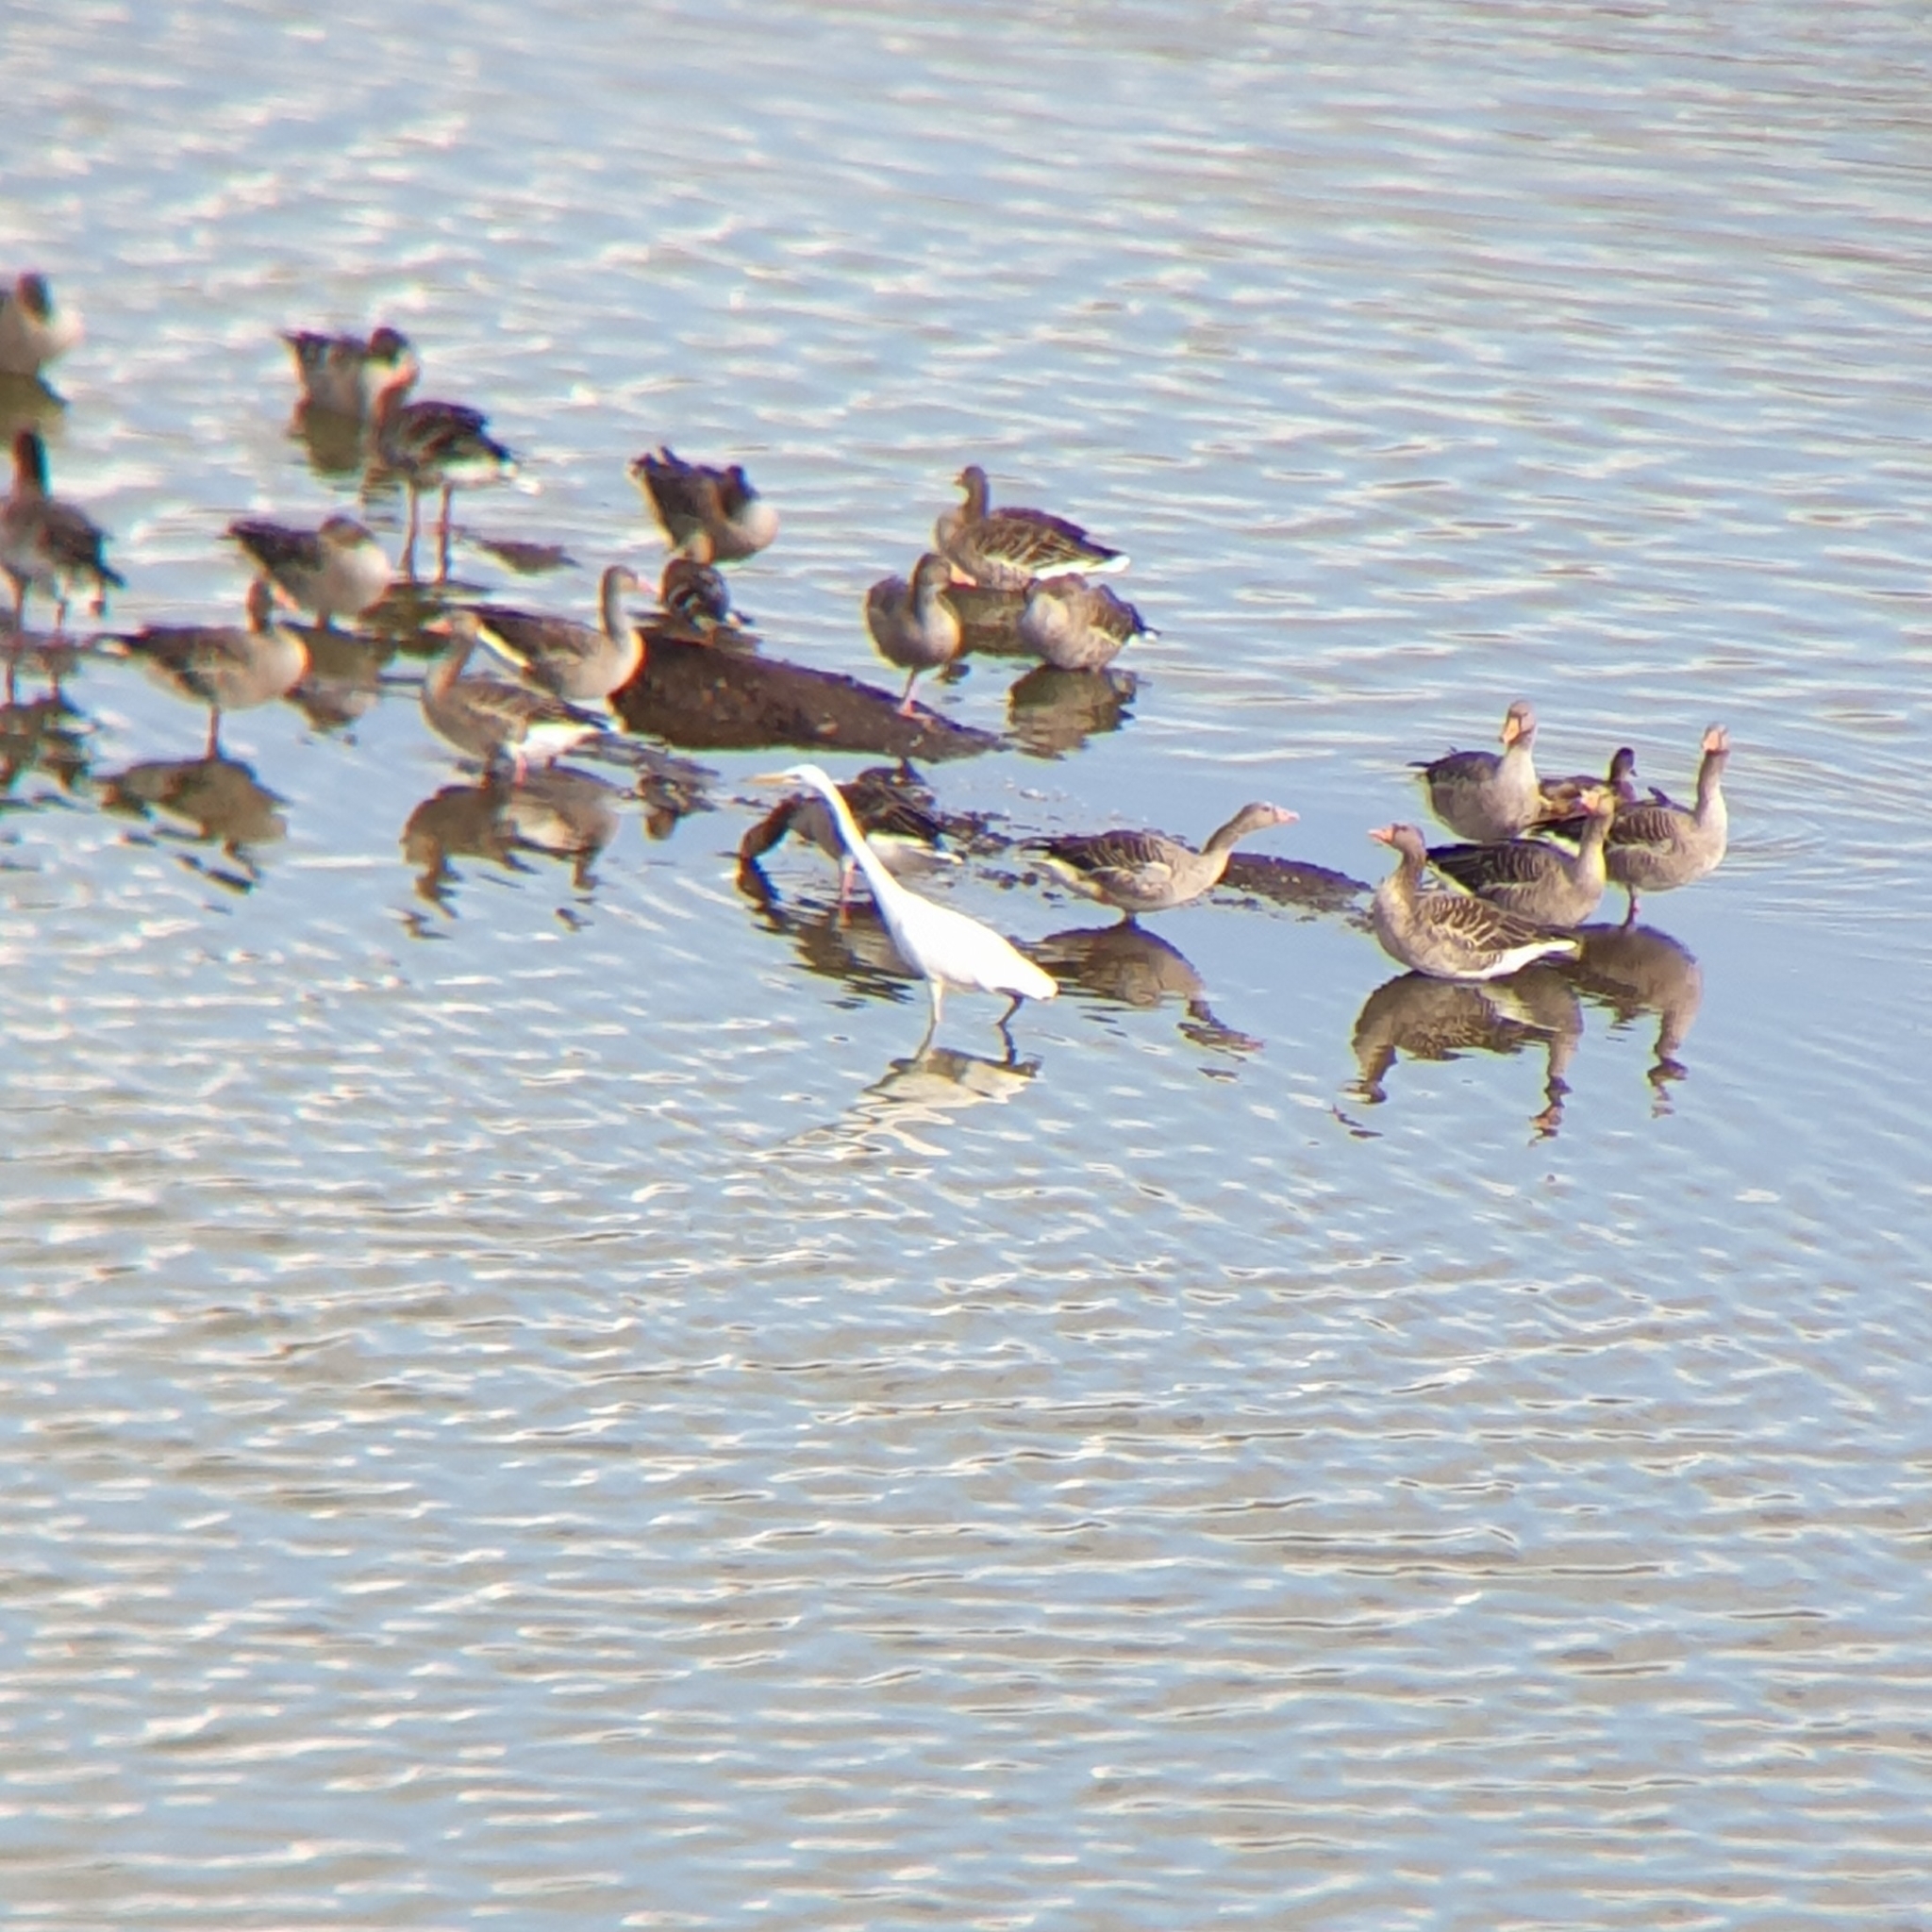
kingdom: Animalia
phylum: Chordata
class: Aves
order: Anseriformes
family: Anatidae
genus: Anser
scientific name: Anser anser
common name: Greylag goose
